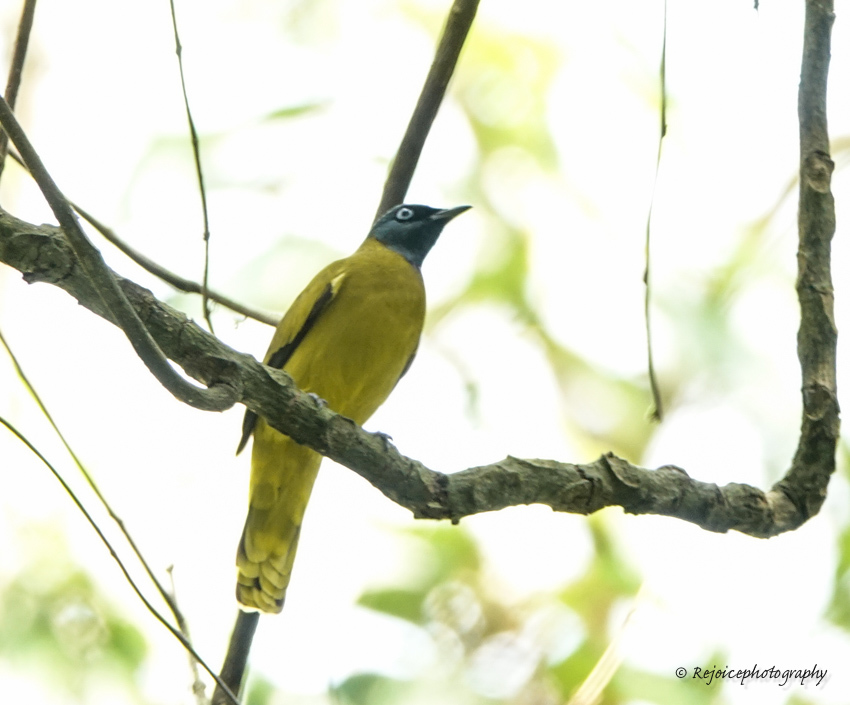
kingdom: Animalia
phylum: Chordata
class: Aves
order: Passeriformes
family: Pycnonotidae
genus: Microtarsus
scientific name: Microtarsus
